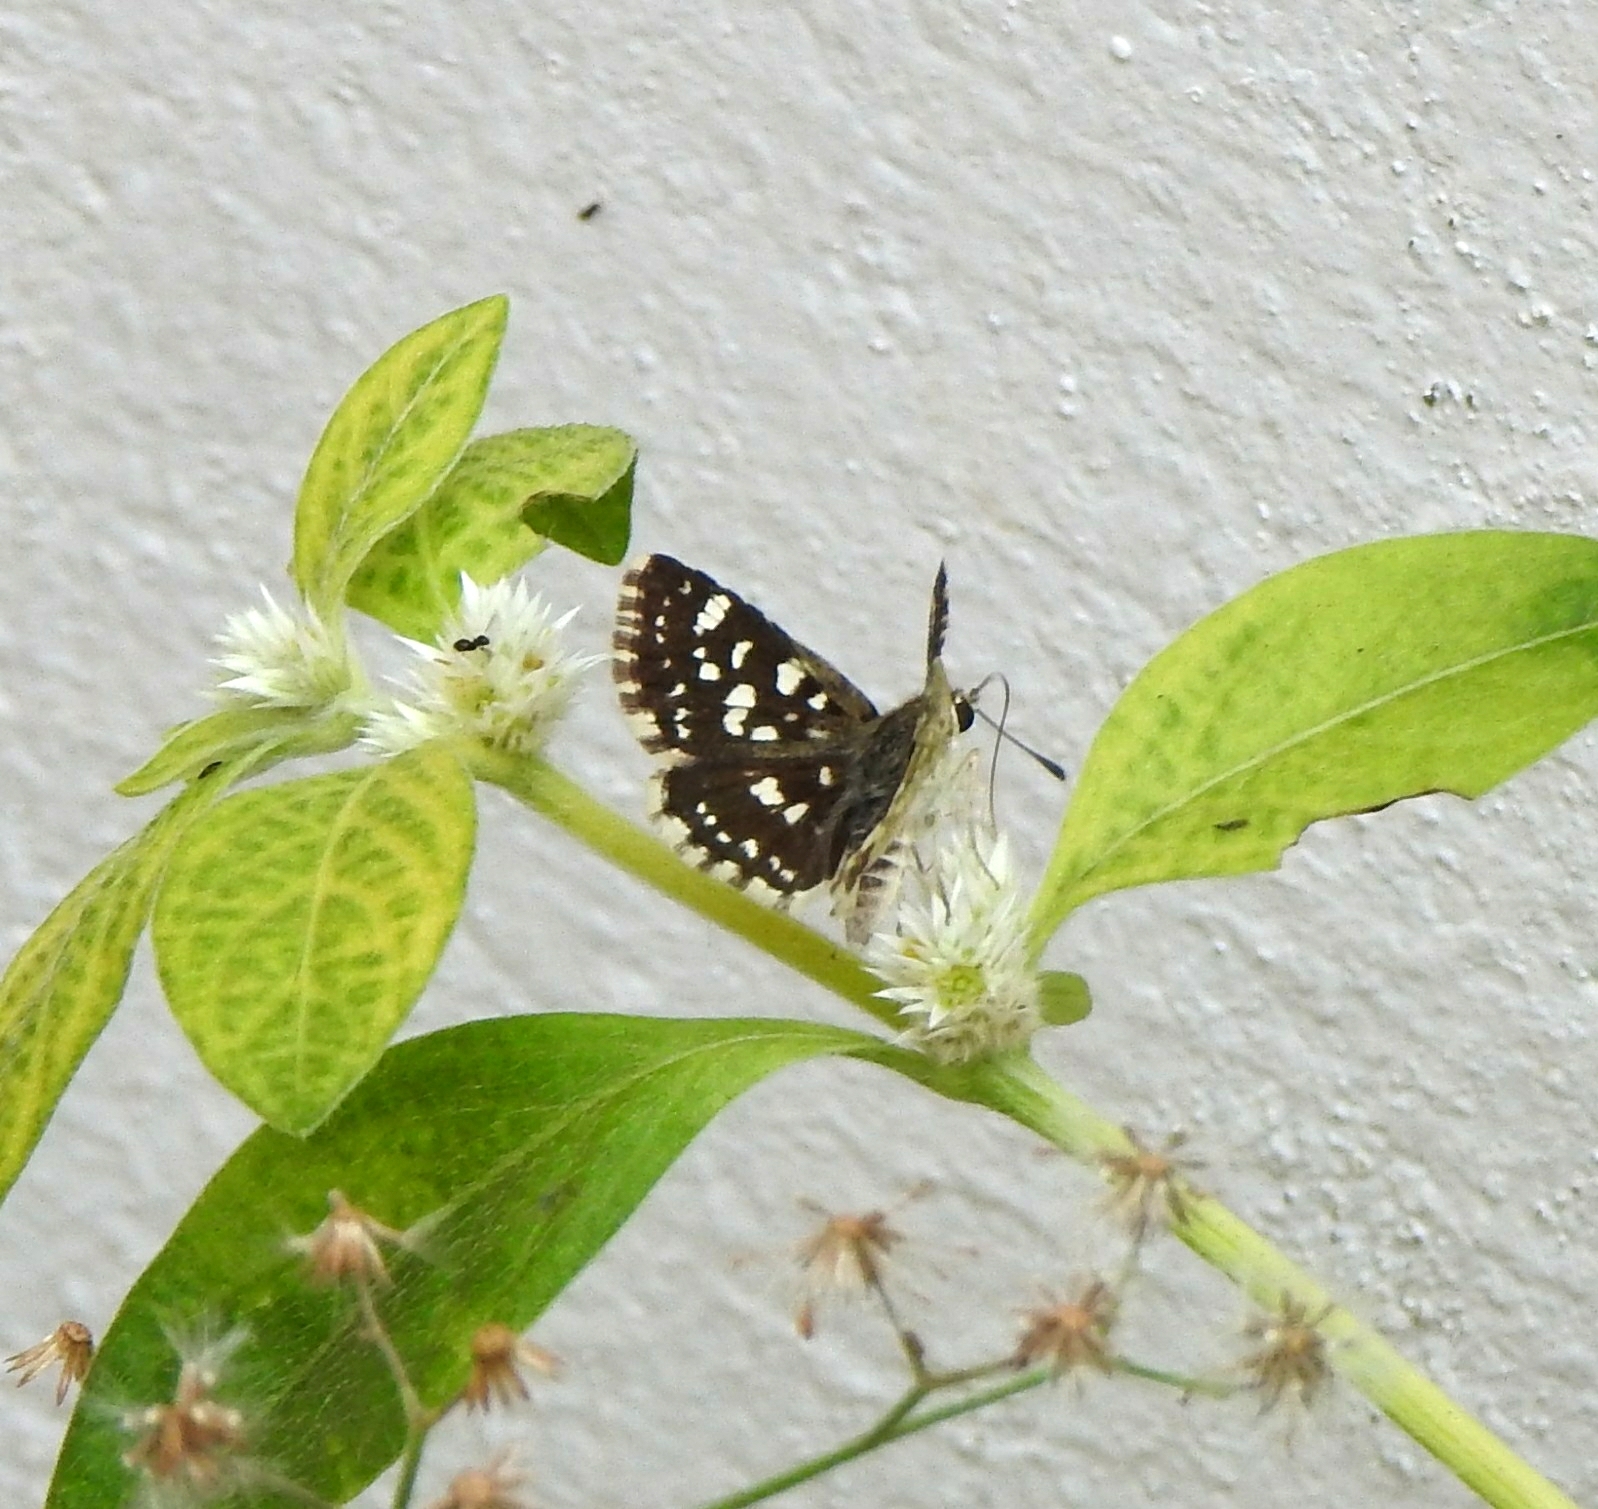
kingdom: Animalia
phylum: Arthropoda
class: Insecta
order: Lepidoptera
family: Hesperiidae
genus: Spialia
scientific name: Spialia galba
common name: Indian skipper
